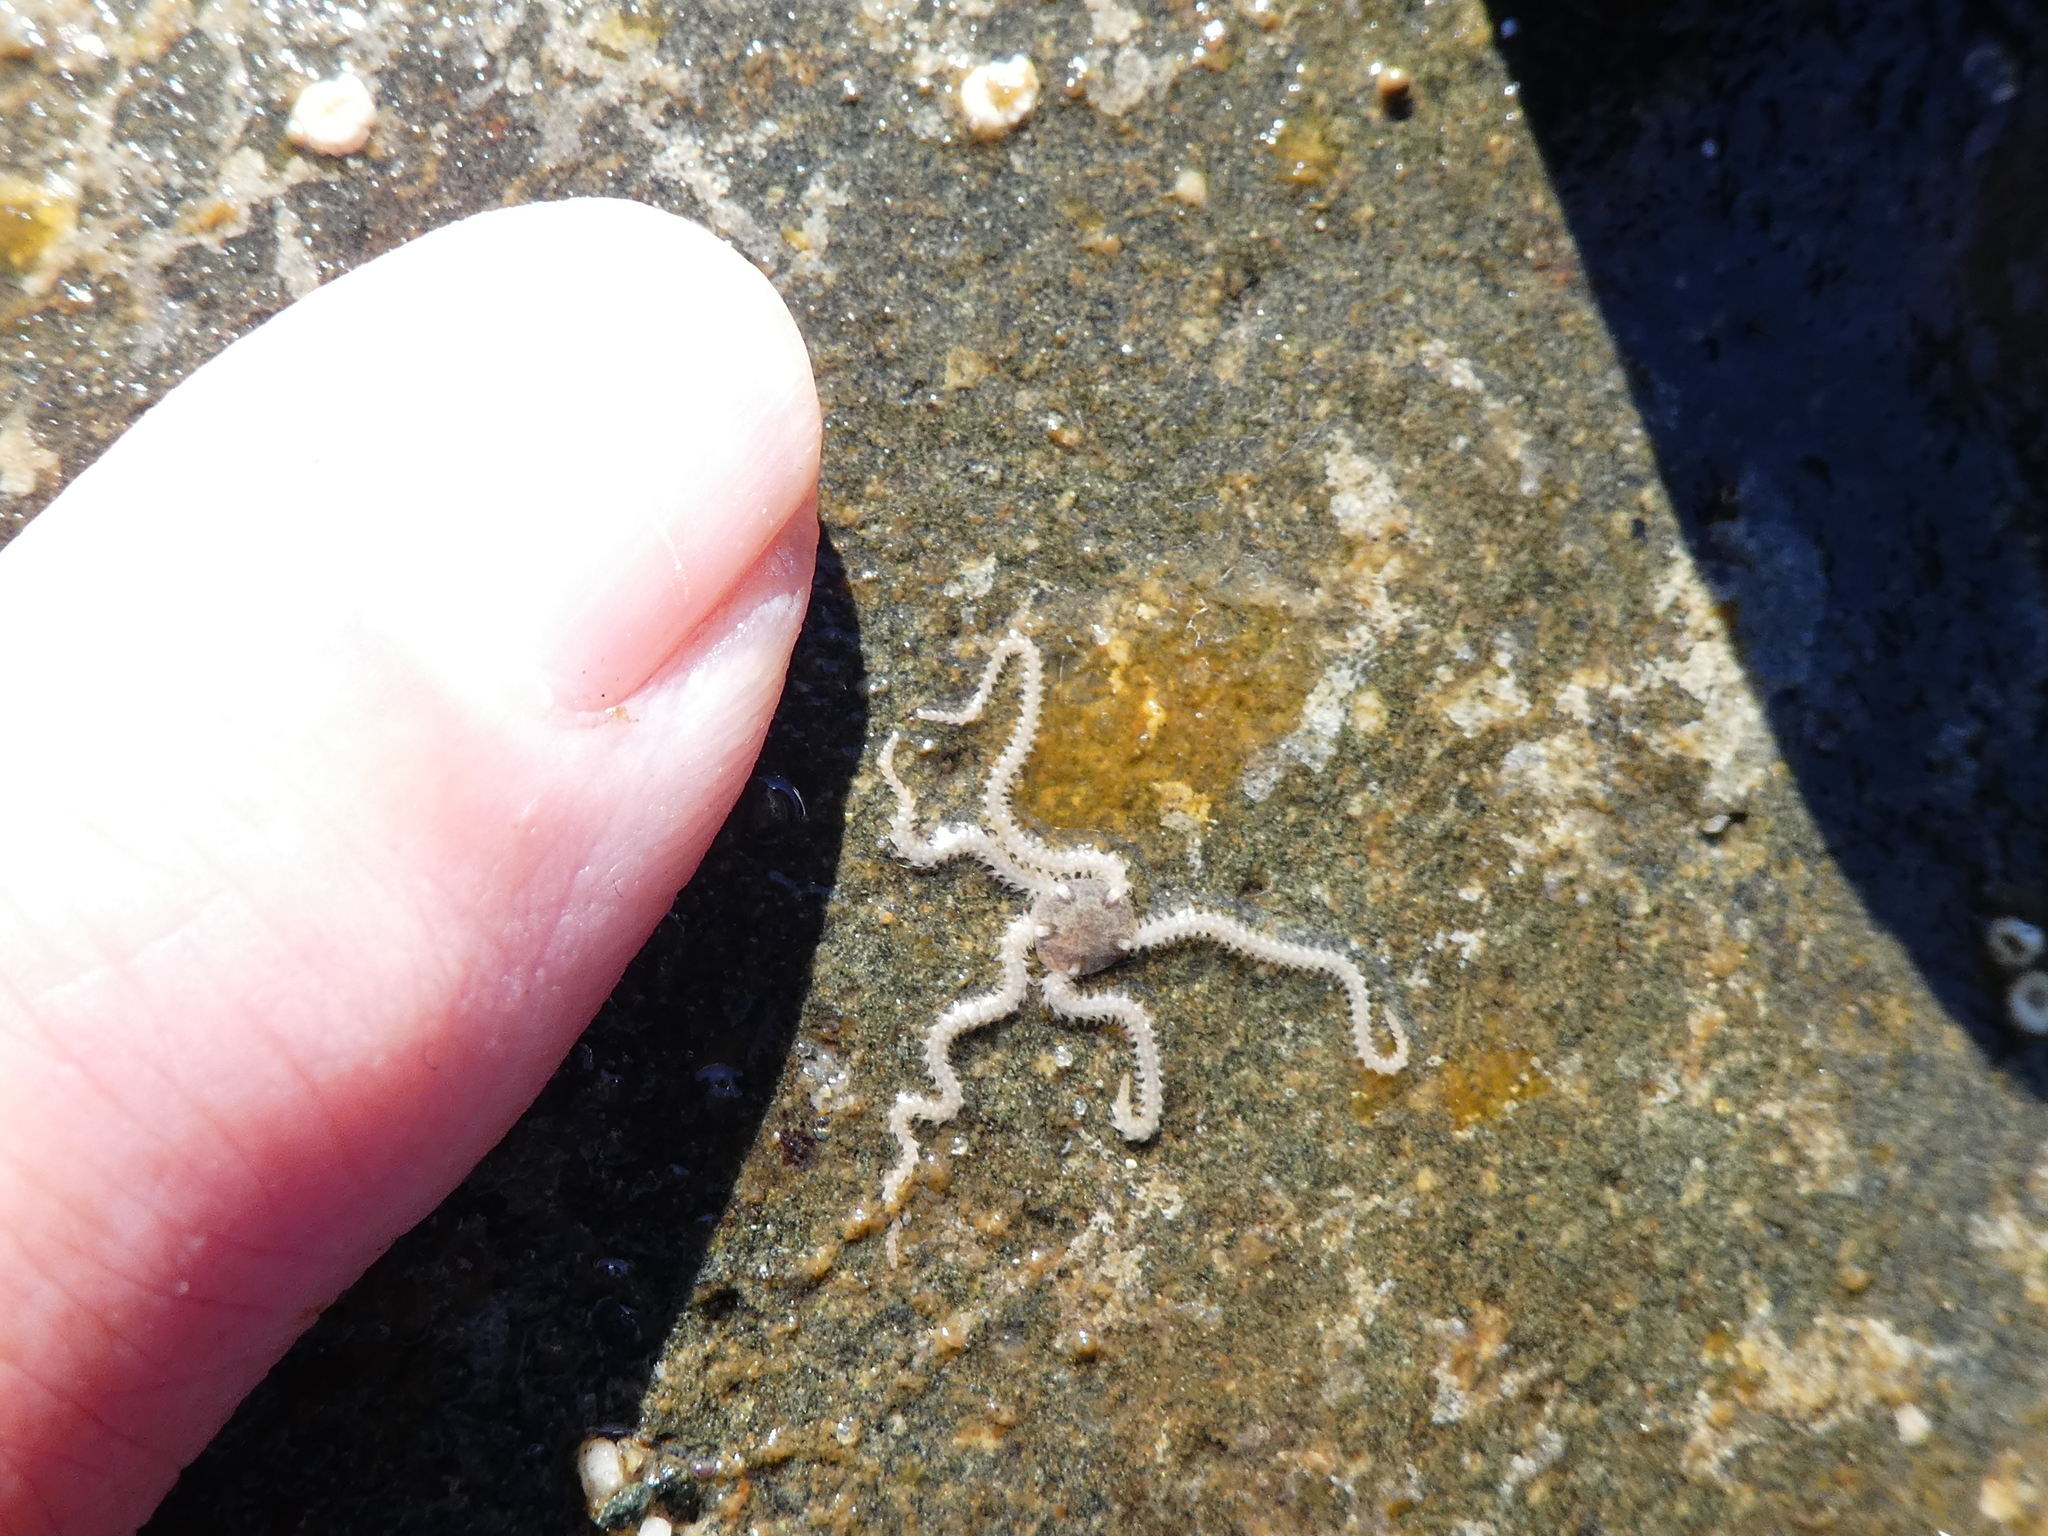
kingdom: Animalia
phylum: Echinodermata
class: Ophiuroidea
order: Amphilepidida
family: Amphiuridae
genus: Amphipholis
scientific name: Amphipholis squamata
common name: Brooding snake star
